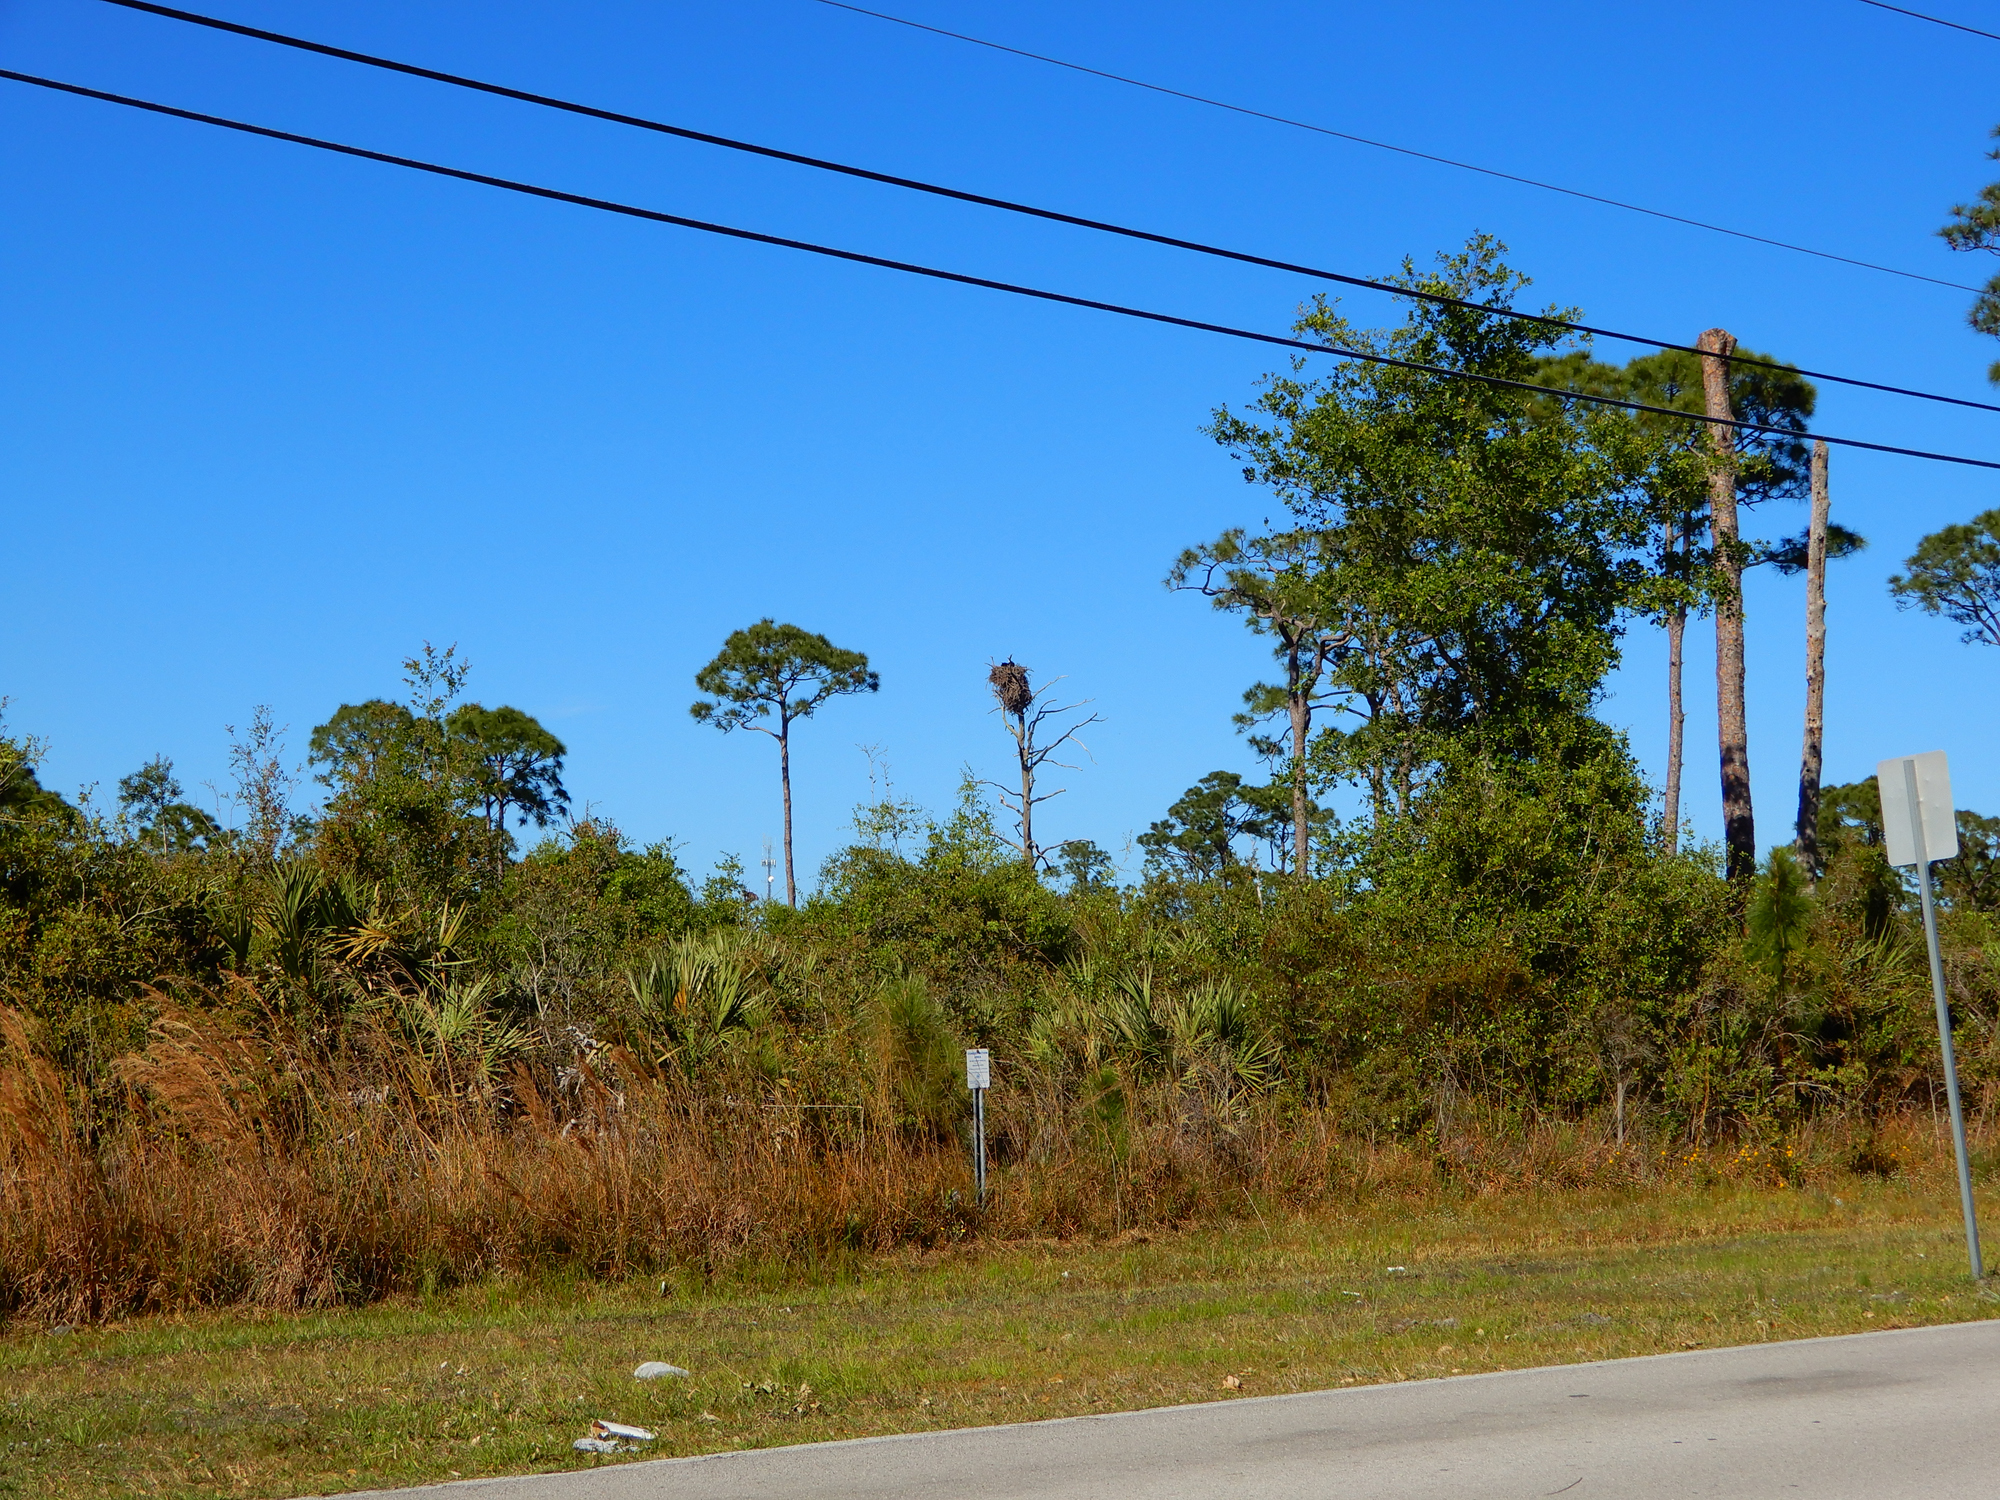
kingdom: Animalia
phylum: Chordata
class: Aves
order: Accipitriformes
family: Pandionidae
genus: Pandion
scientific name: Pandion haliaetus
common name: Osprey
